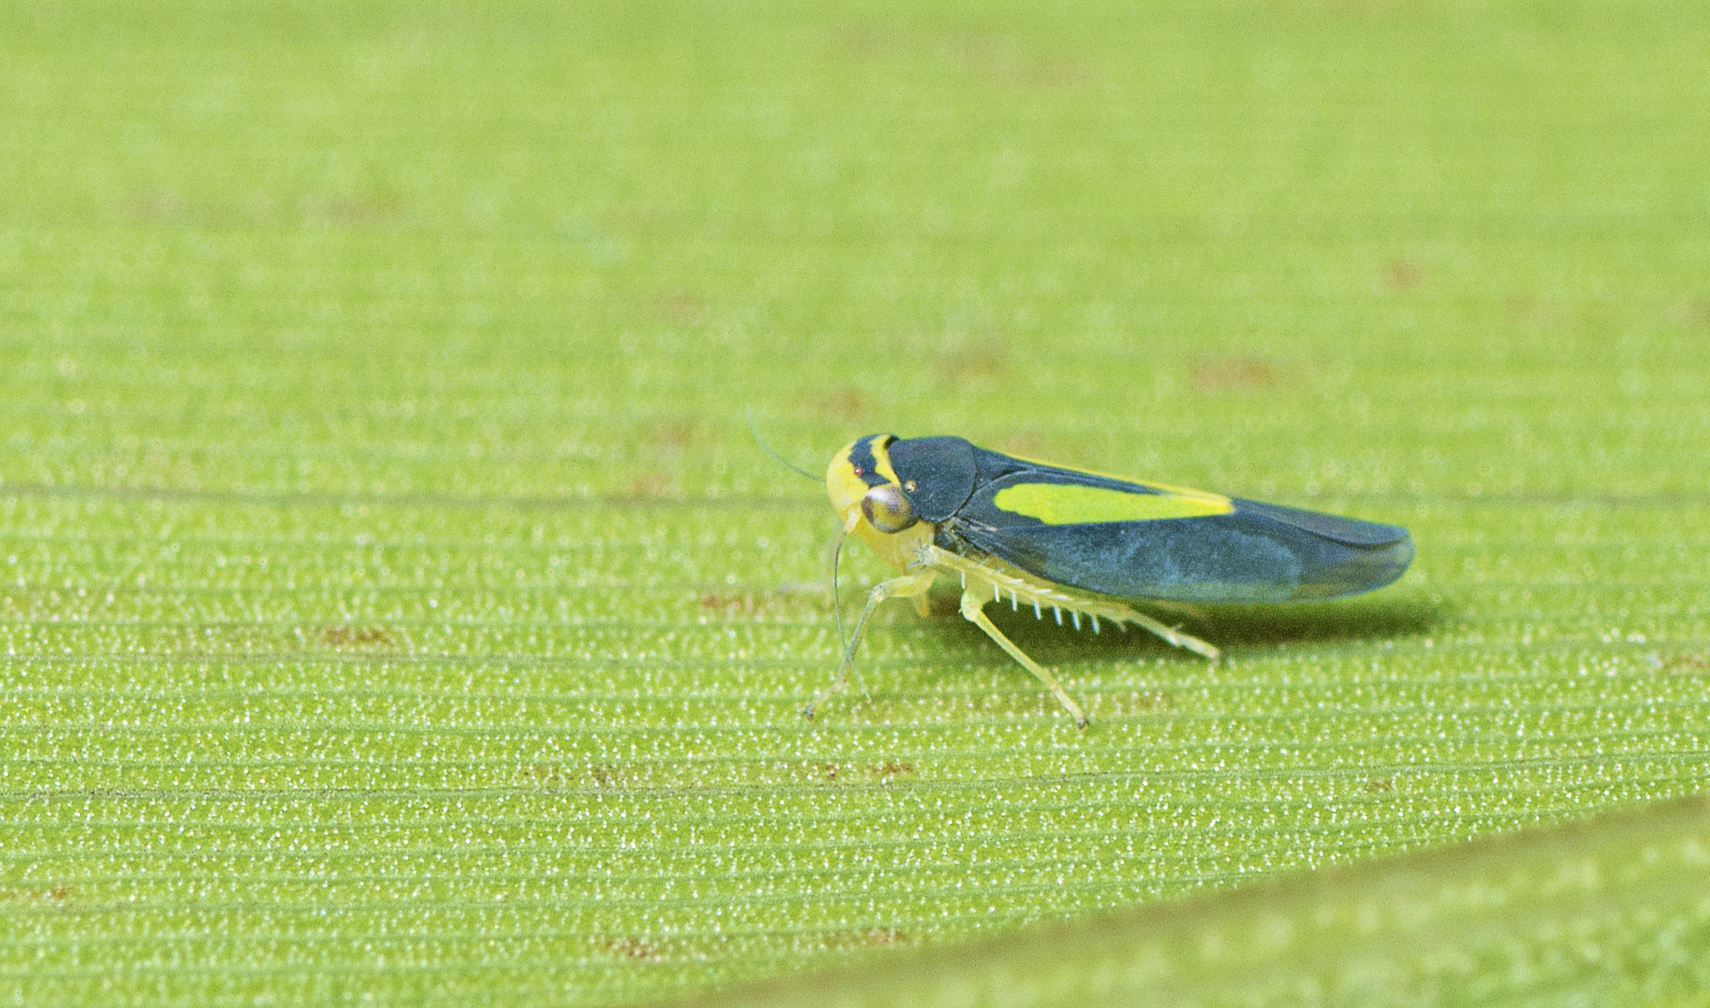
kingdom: Animalia
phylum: Arthropoda
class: Insecta
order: Hemiptera
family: Cicadellidae
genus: Ishidaella
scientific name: Ishidaella anemolua
